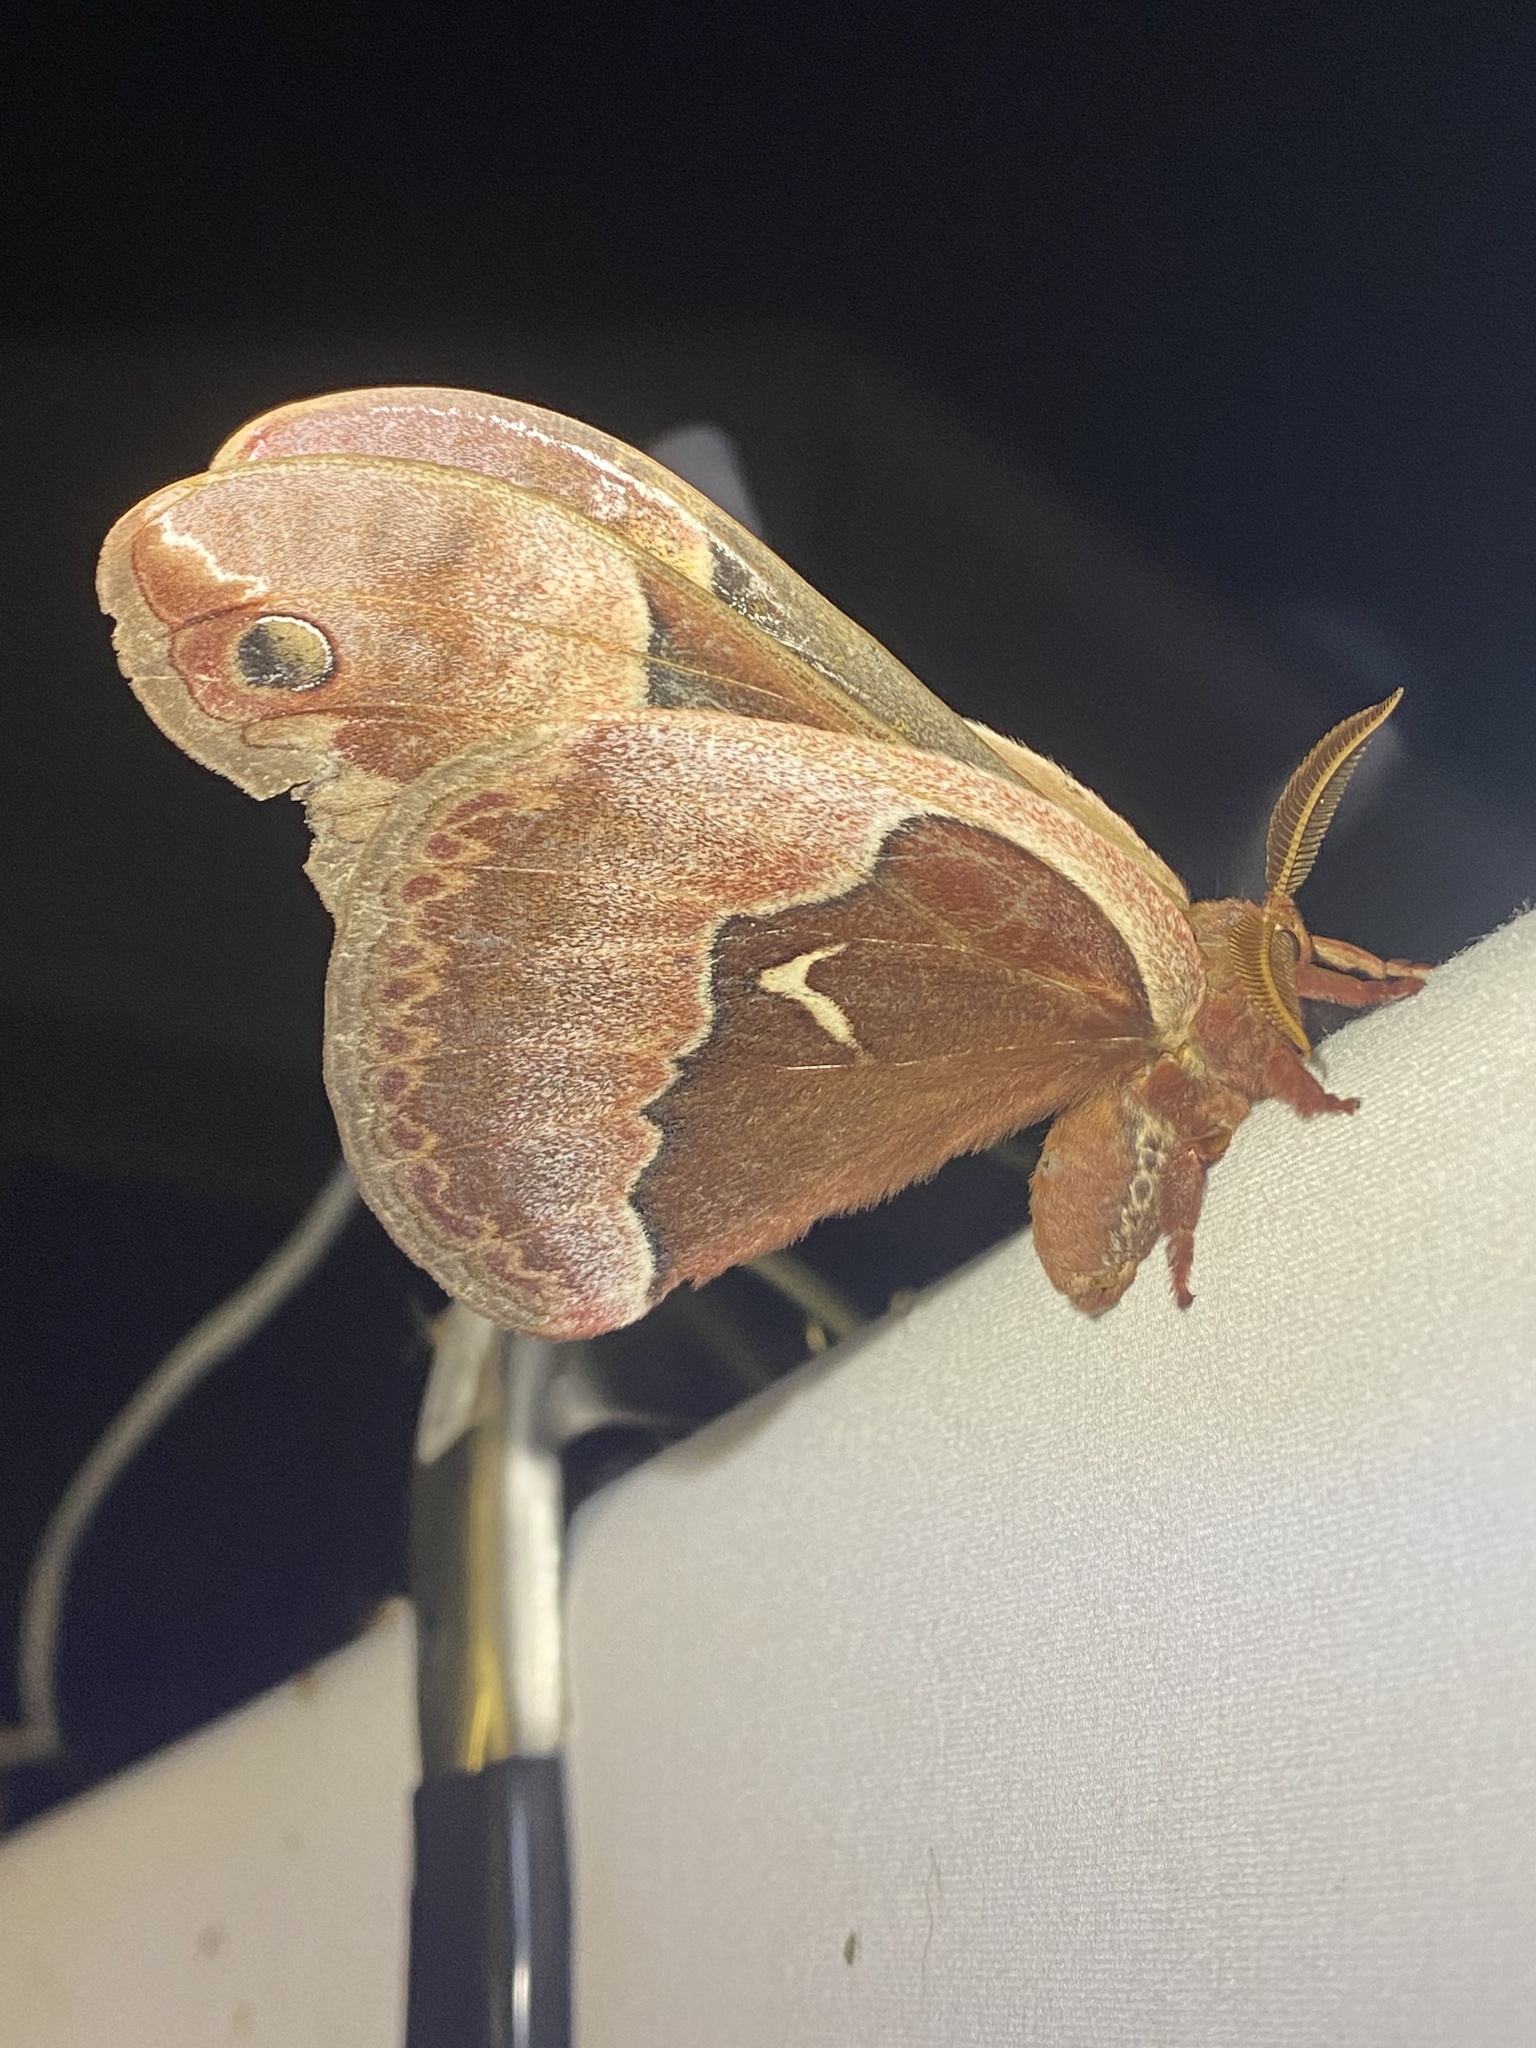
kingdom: Animalia
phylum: Arthropoda
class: Insecta
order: Lepidoptera
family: Saturniidae
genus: Callosamia
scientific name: Callosamia angulifera
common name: Tulip tree silkmoth
